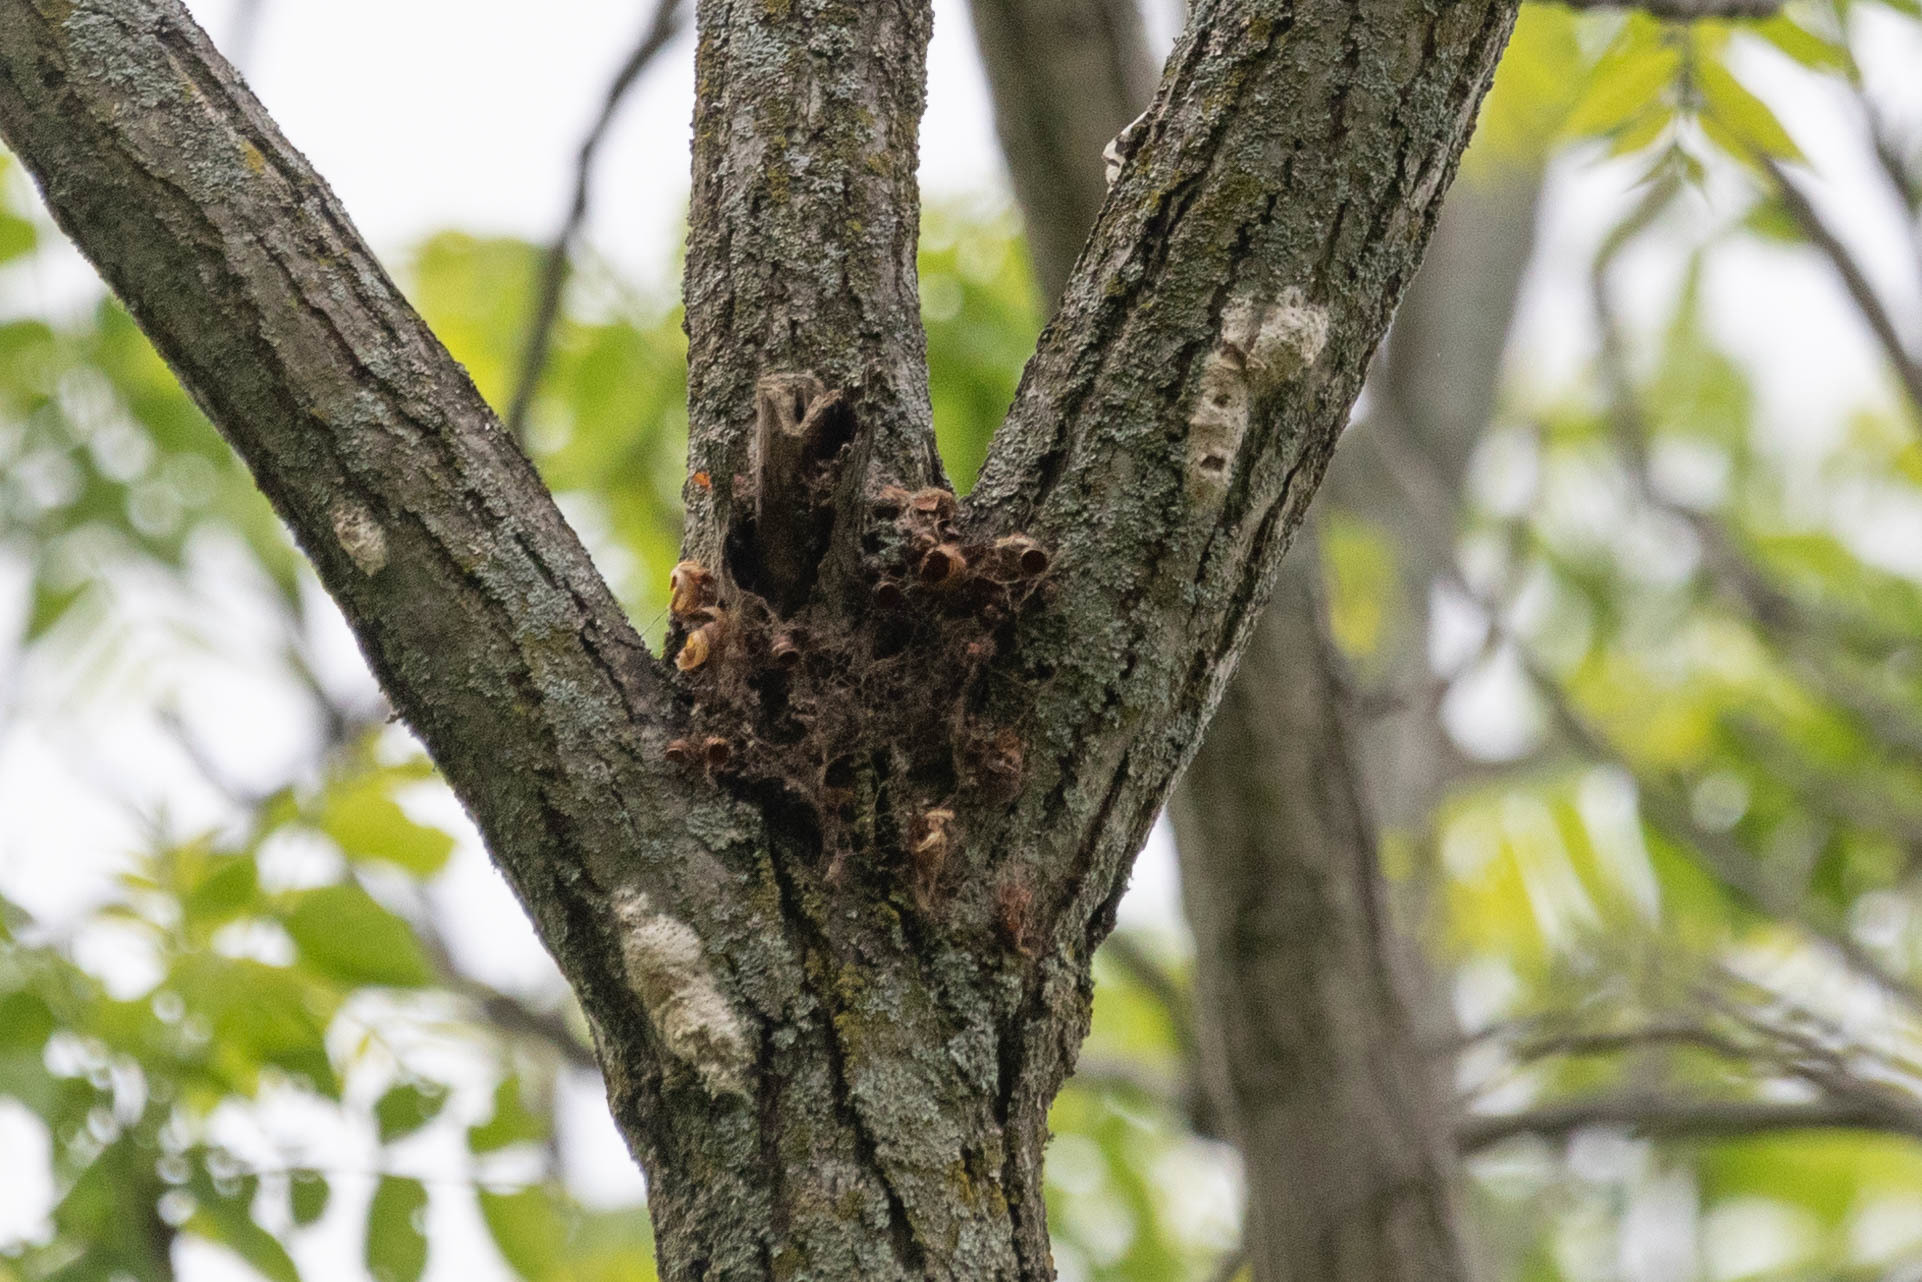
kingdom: Animalia
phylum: Arthropoda
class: Insecta
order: Lepidoptera
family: Erebidae
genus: Lymantria
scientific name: Lymantria dispar
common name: Gypsy moth
